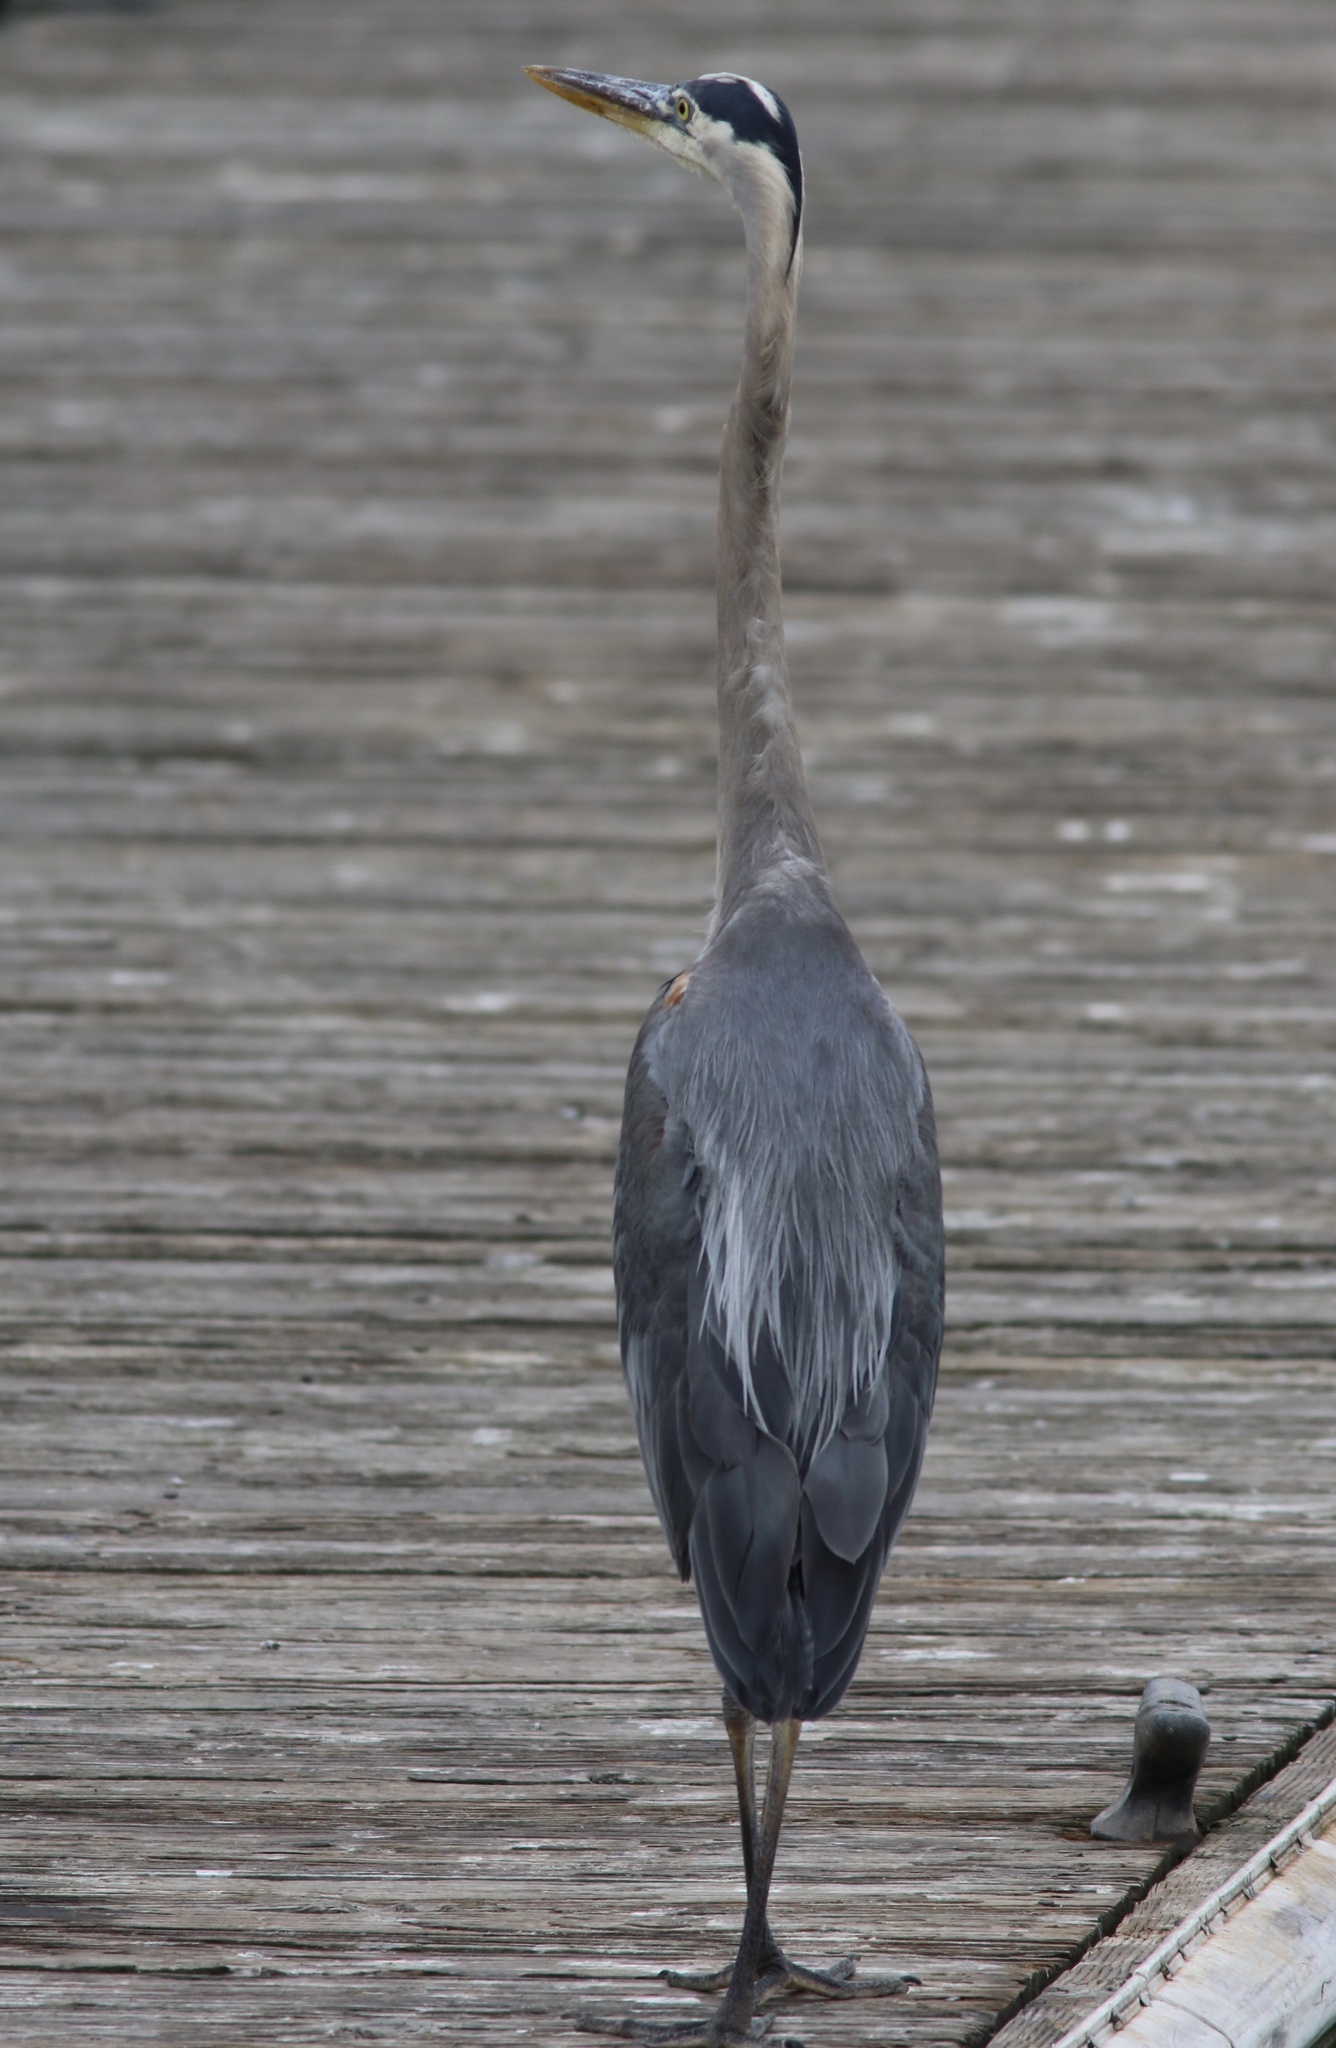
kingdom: Animalia
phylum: Chordata
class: Aves
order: Pelecaniformes
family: Ardeidae
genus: Ardea
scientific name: Ardea herodias
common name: Great blue heron
